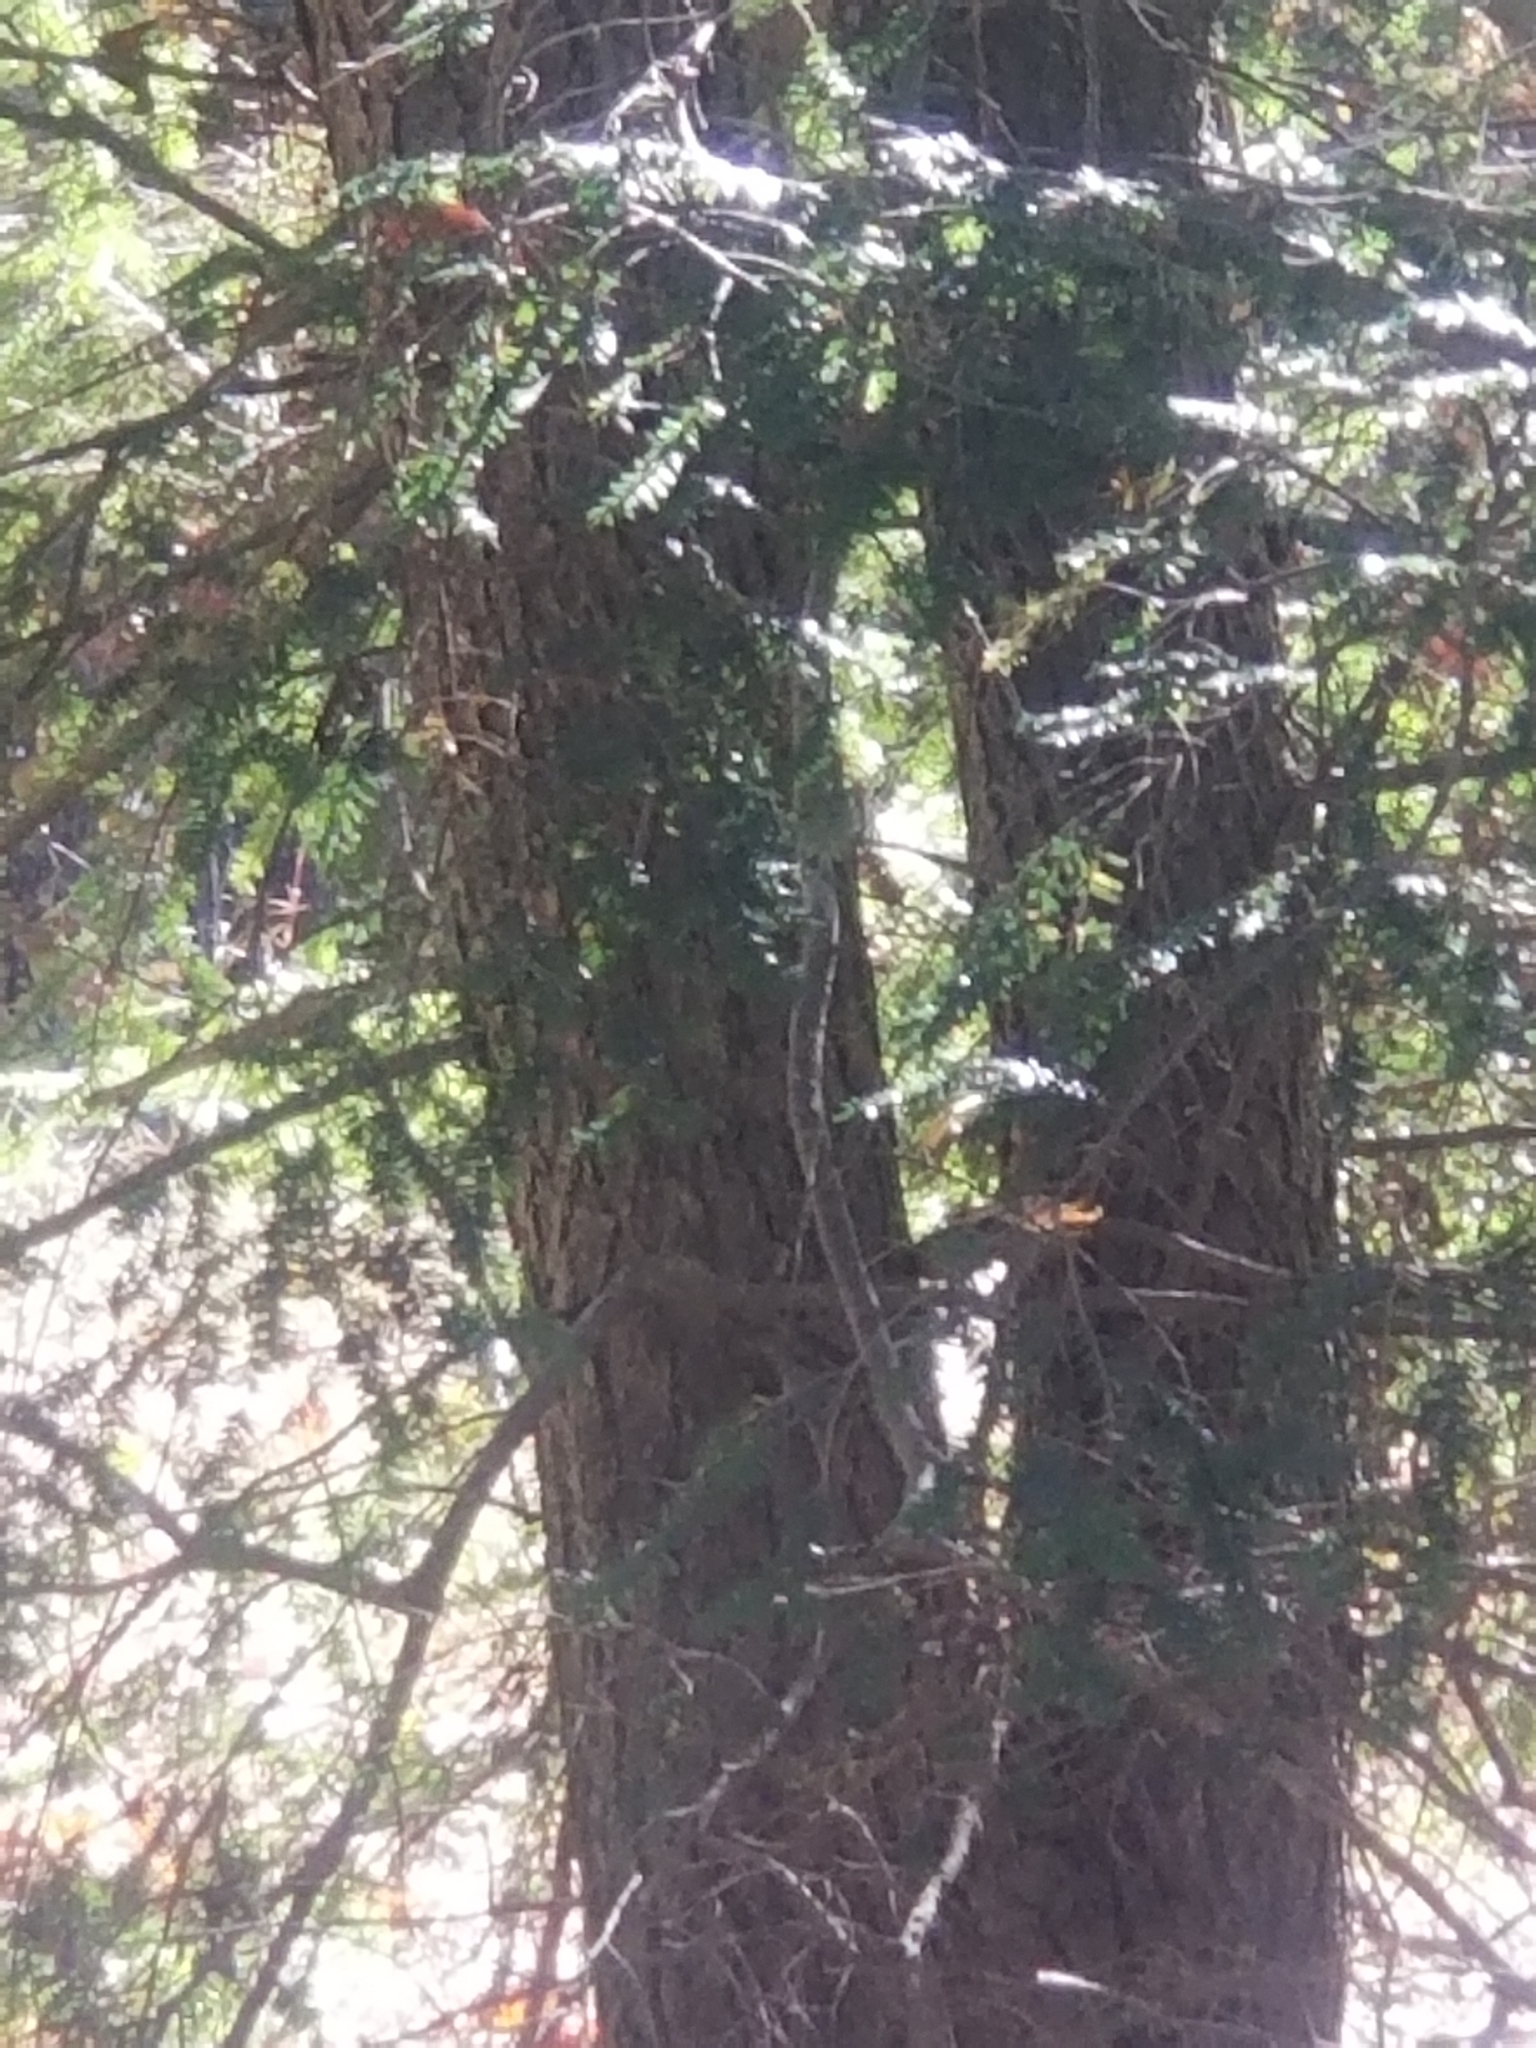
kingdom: Plantae
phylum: Tracheophyta
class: Pinopsida
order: Pinales
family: Pinaceae
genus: Tsuga
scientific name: Tsuga canadensis
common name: Eastern hemlock
